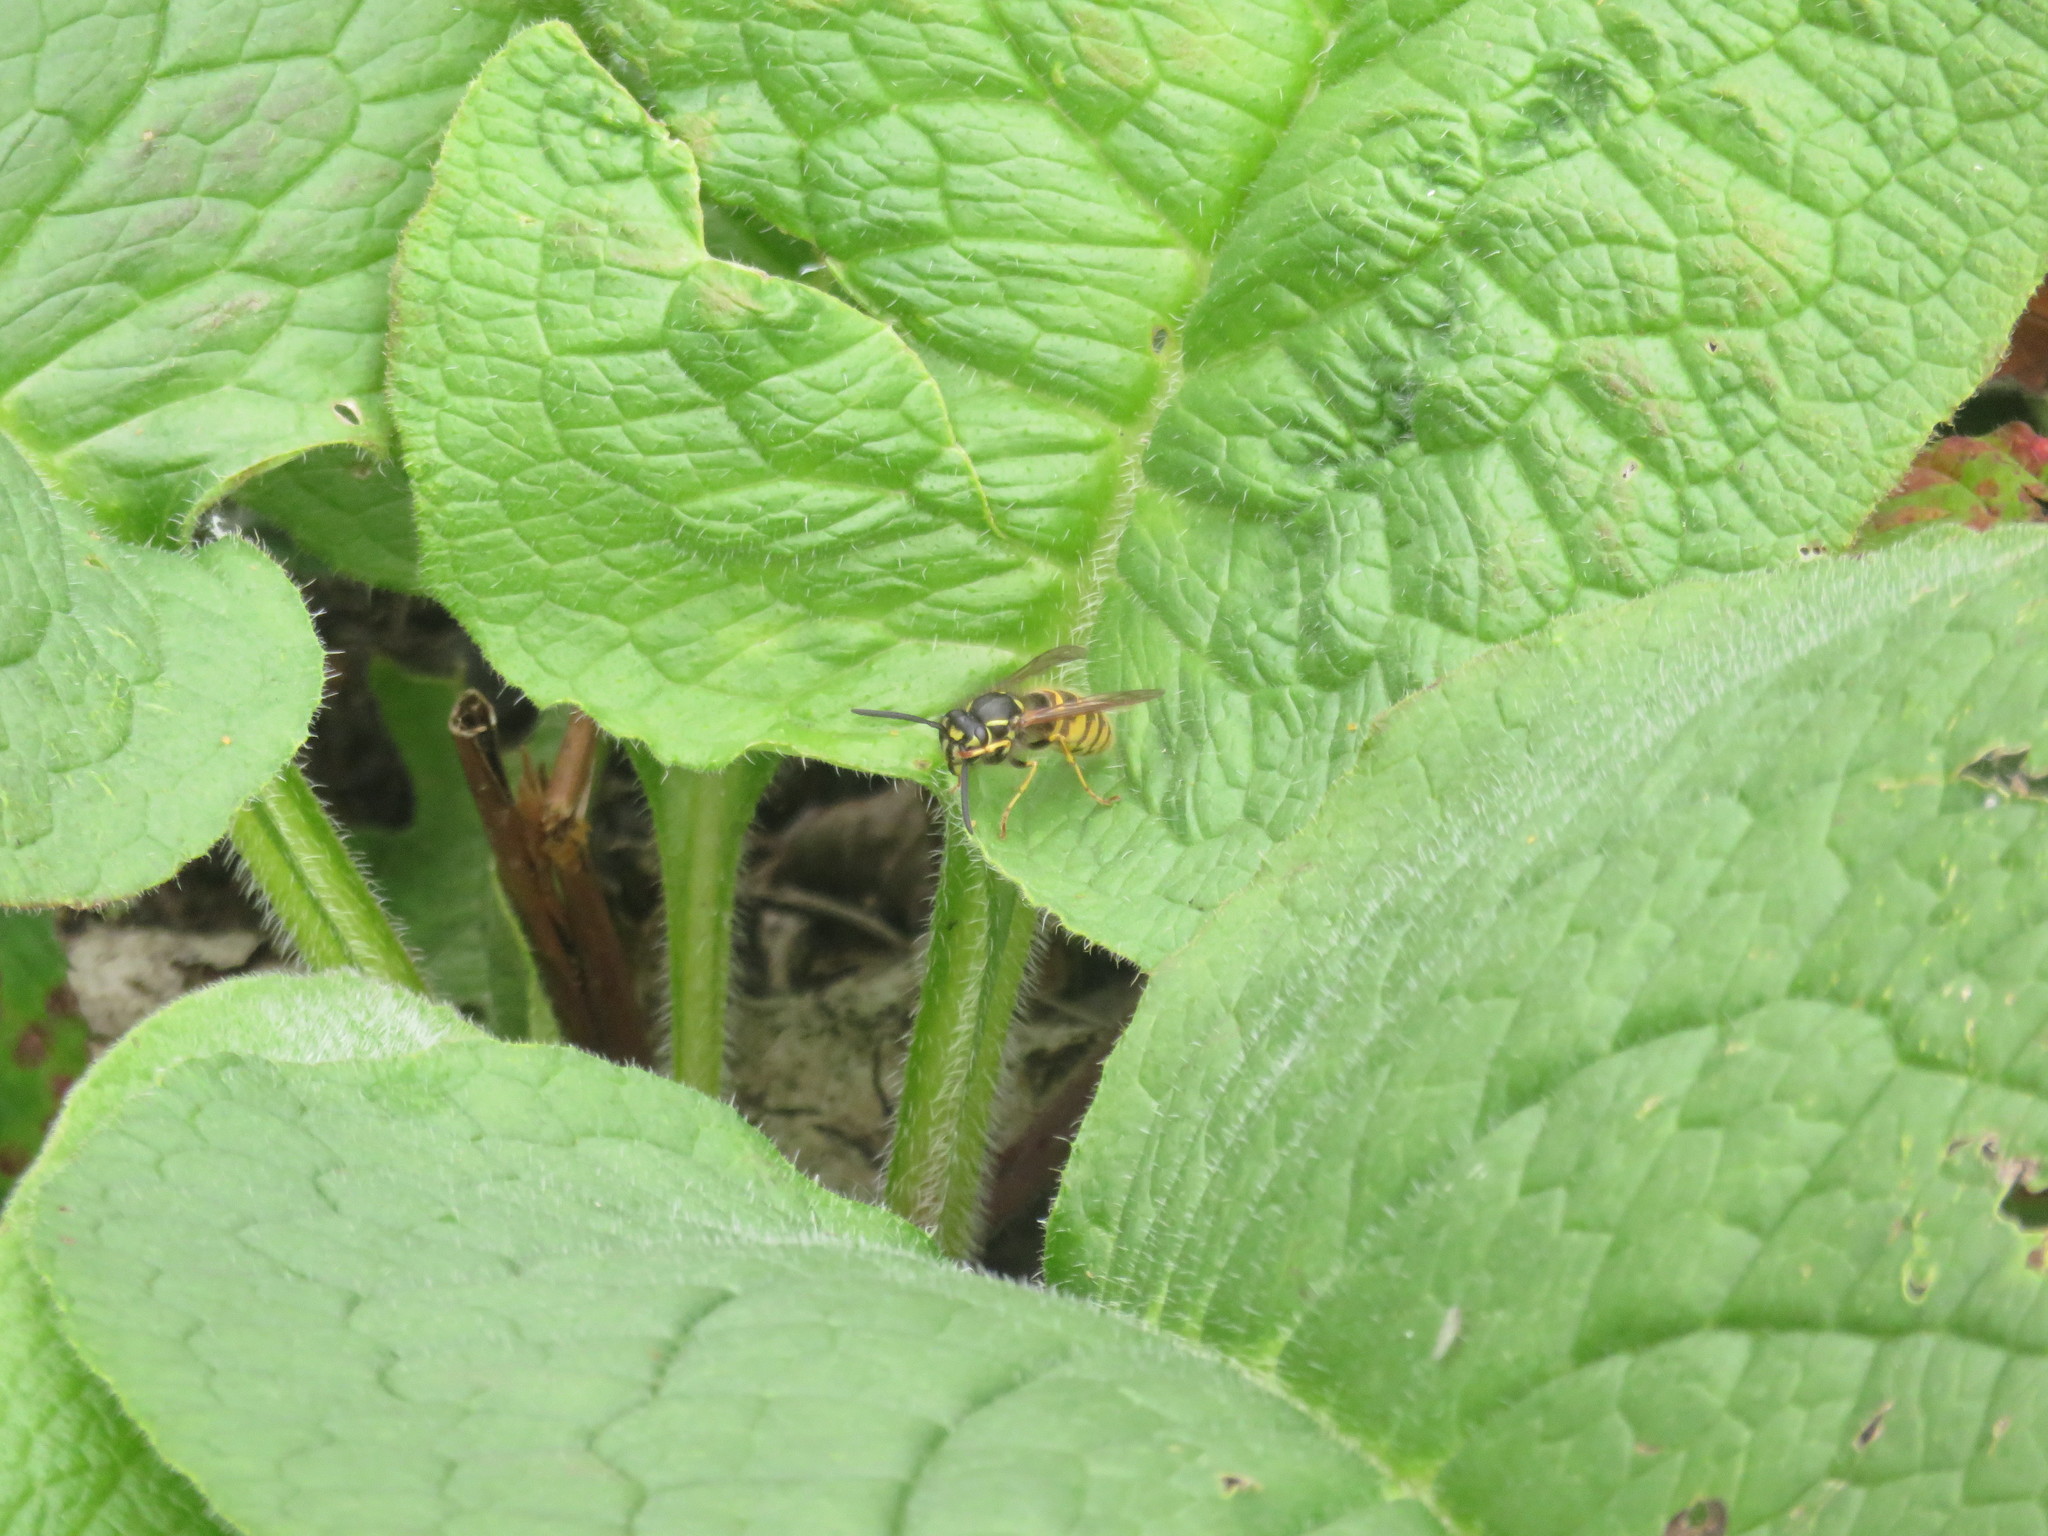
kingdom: Animalia
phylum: Arthropoda
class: Insecta
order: Hymenoptera
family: Vespidae
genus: Vespula
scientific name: Vespula vulgaris
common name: Common wasp
